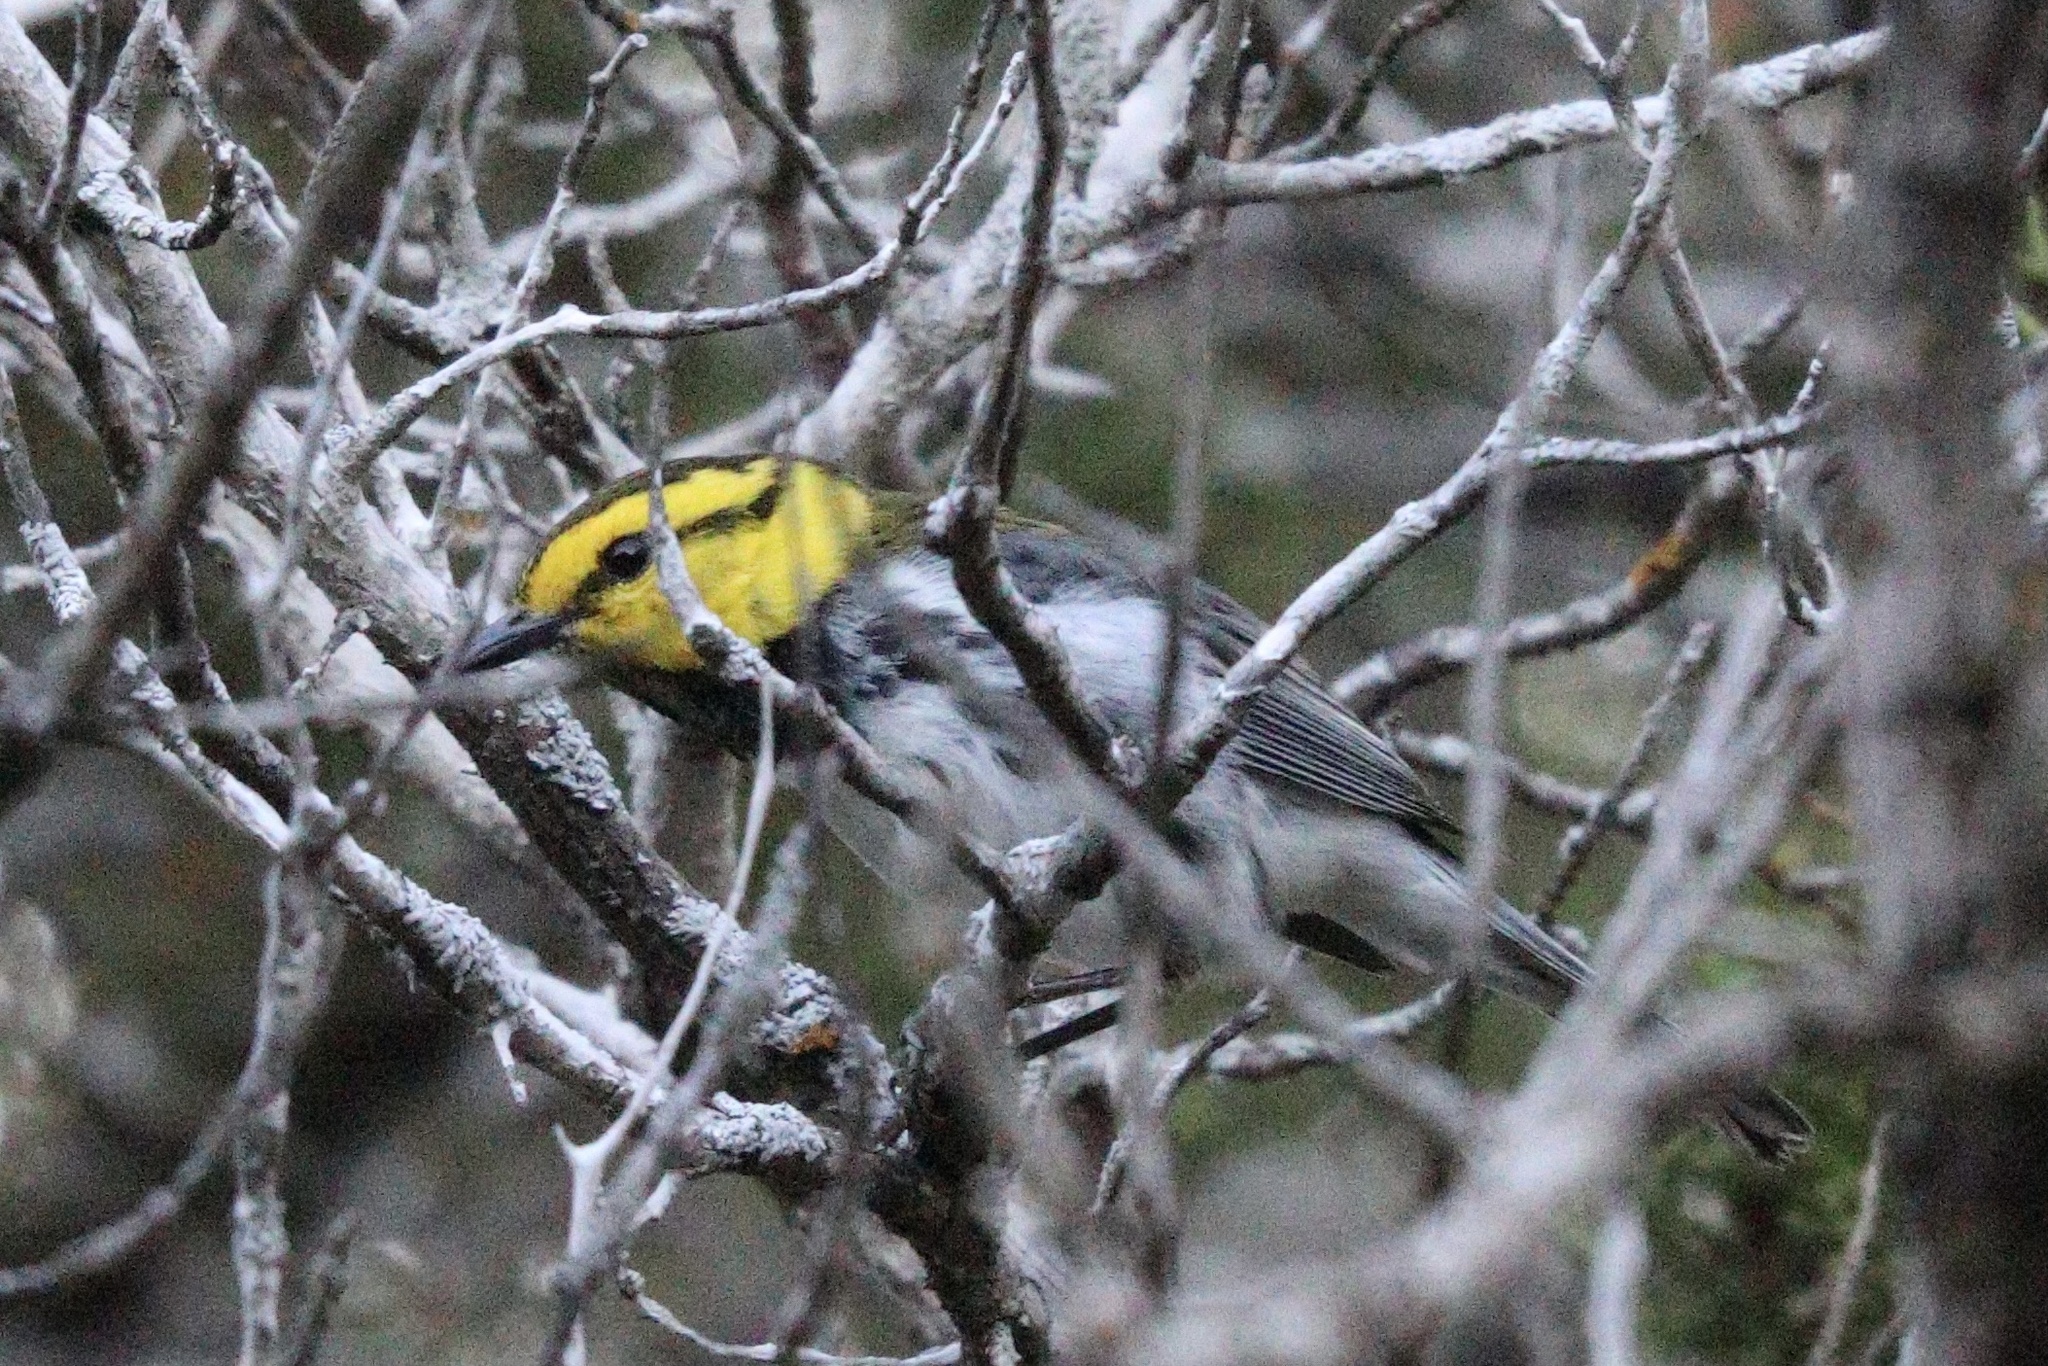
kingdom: Animalia
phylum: Chordata
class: Aves
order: Passeriformes
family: Parulidae
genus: Setophaga
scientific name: Setophaga chrysoparia
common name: Golden-cheeked warbler
